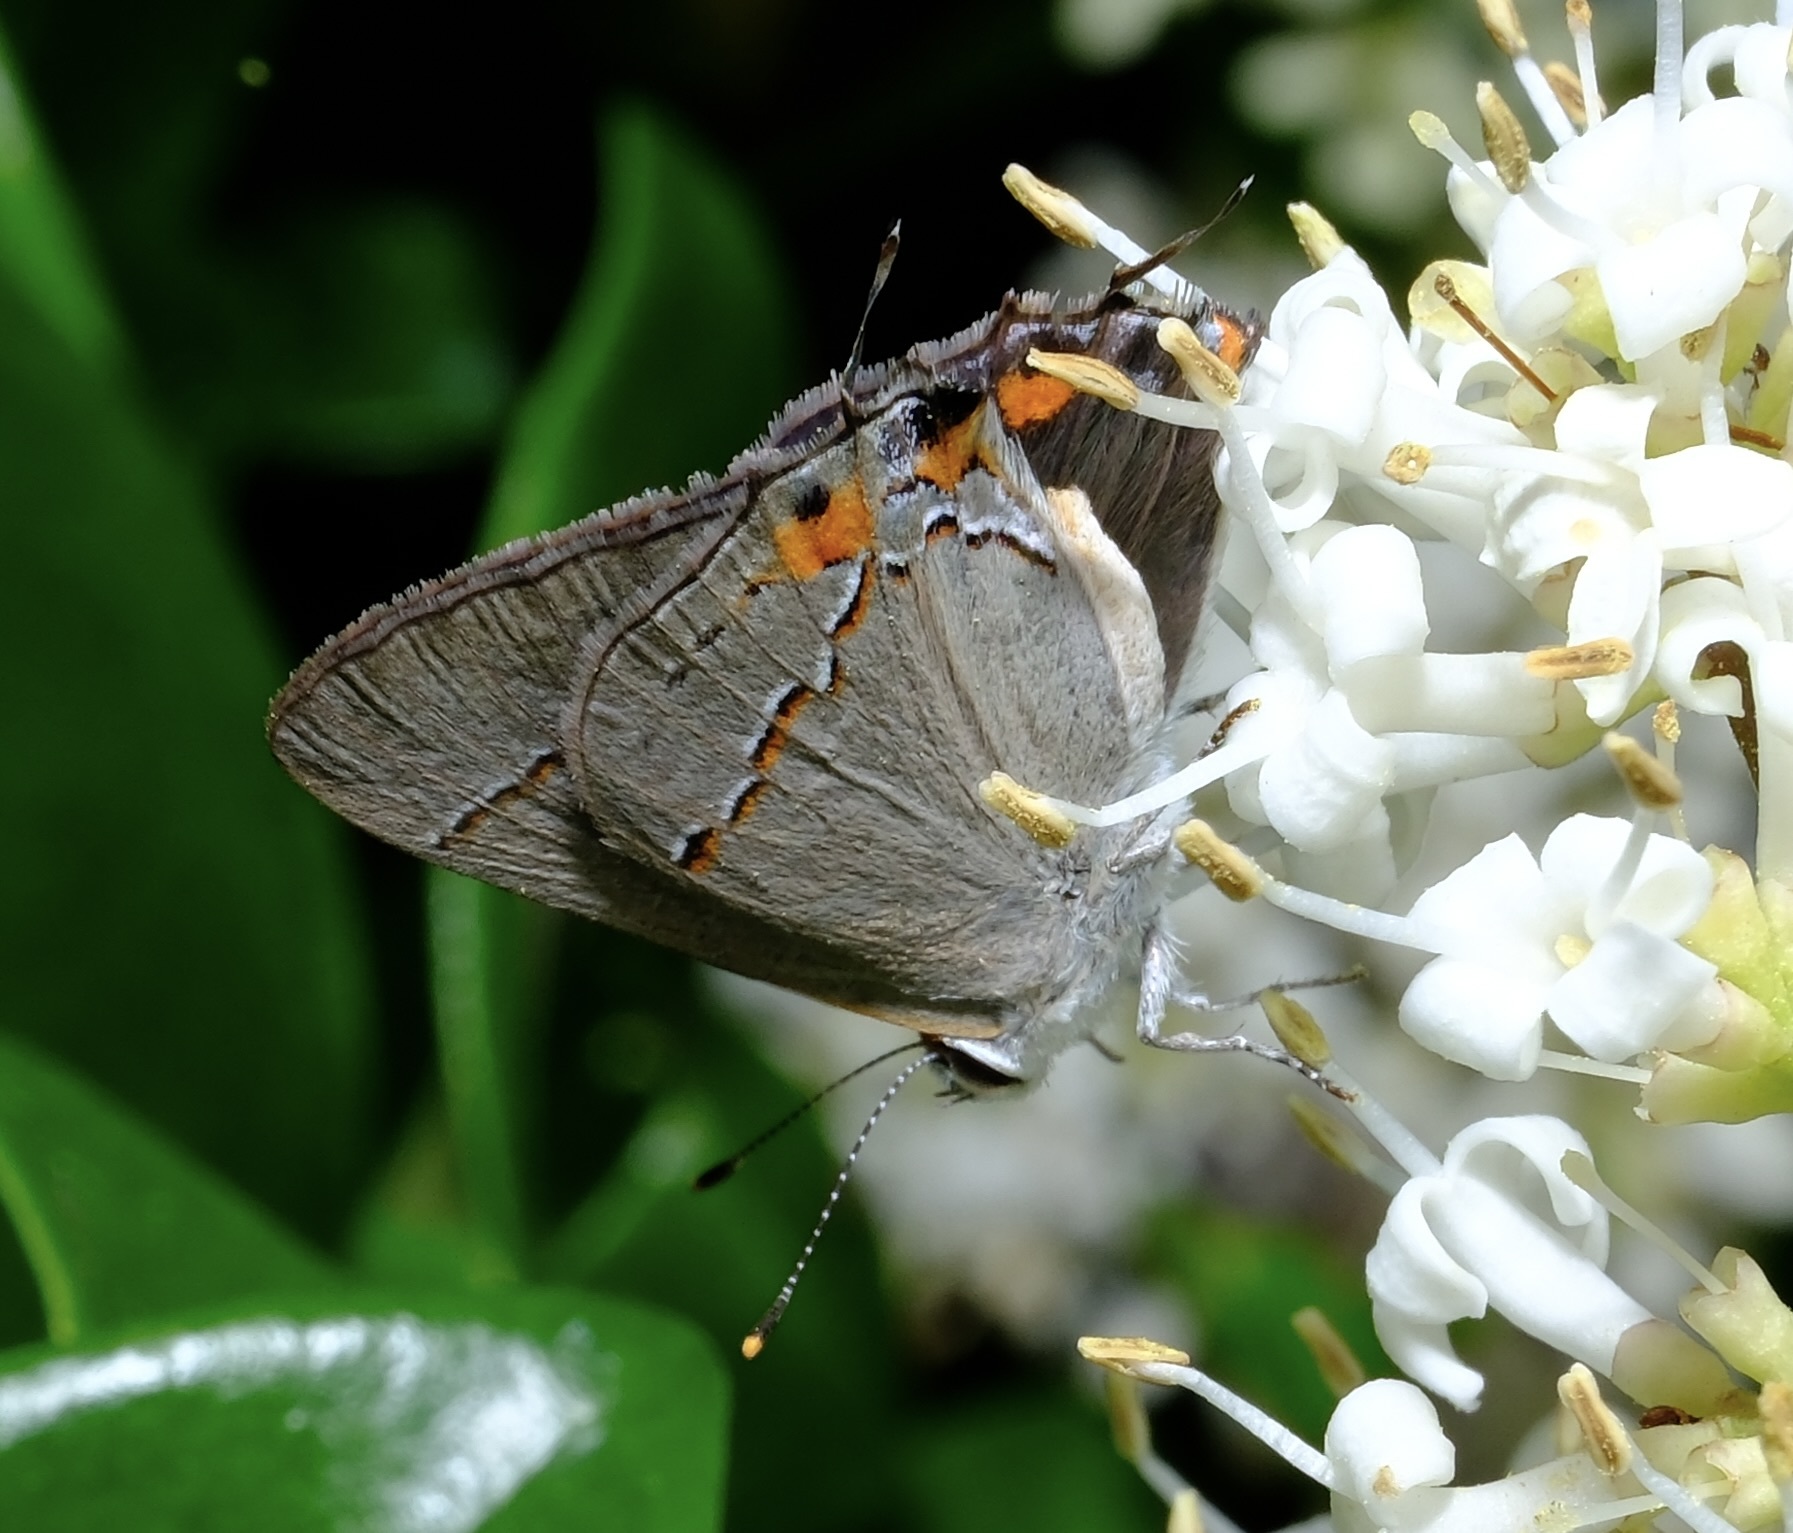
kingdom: Animalia
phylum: Arthropoda
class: Insecta
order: Lepidoptera
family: Lycaenidae
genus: Strymon
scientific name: Strymon melinus
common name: Gray hairstreak
